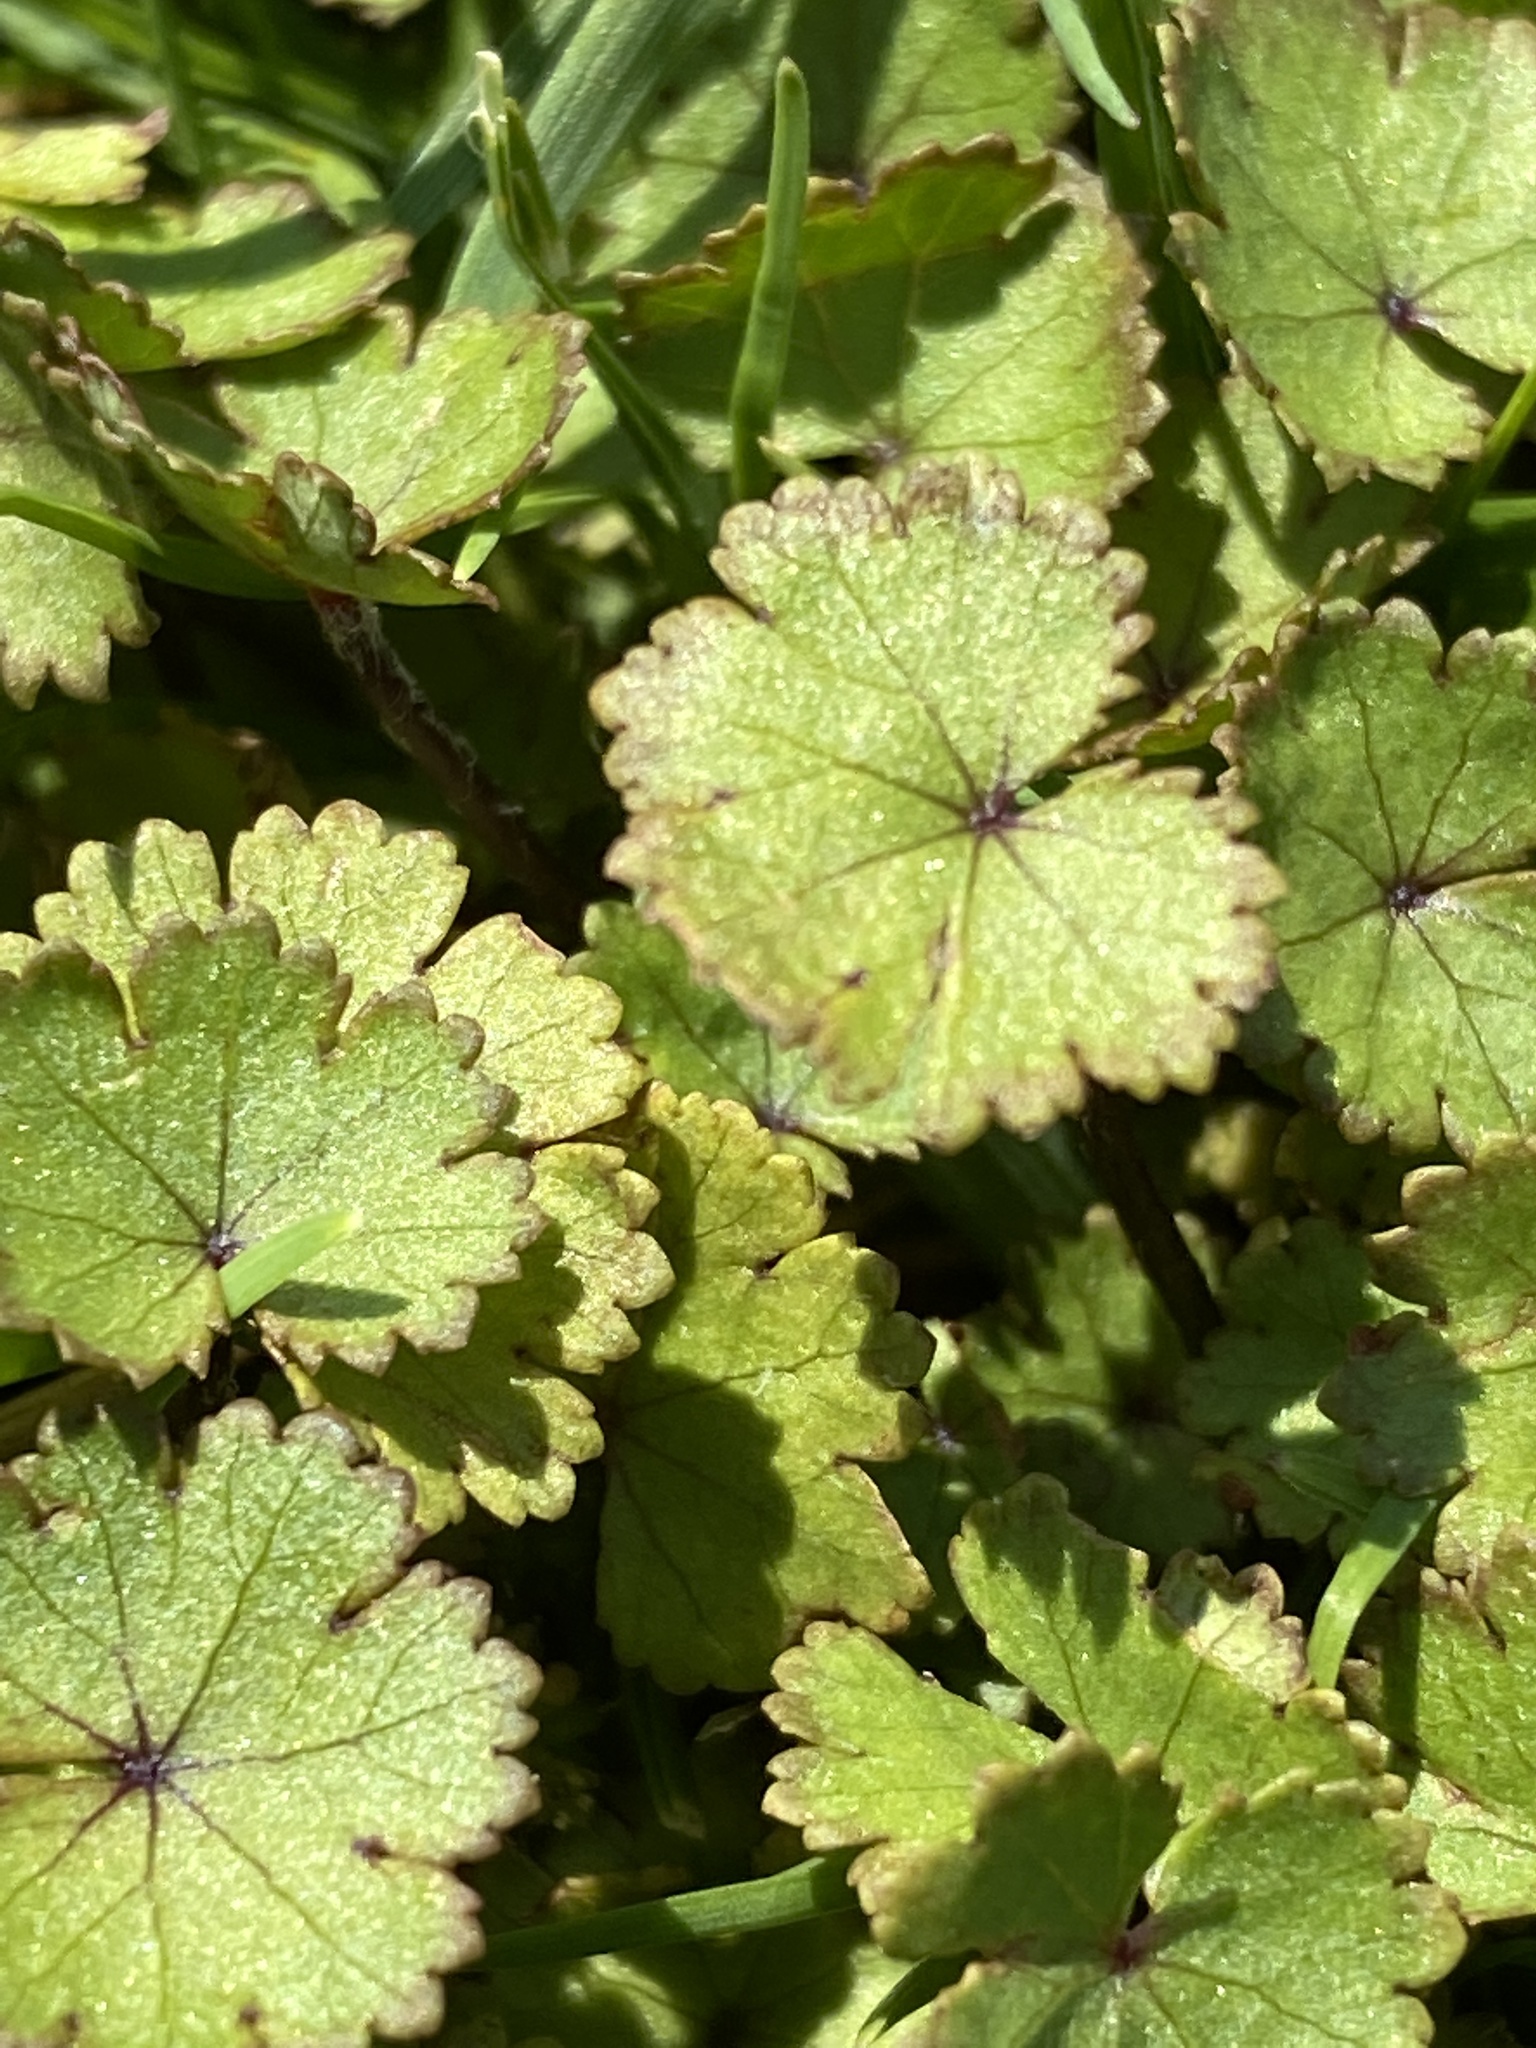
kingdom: Plantae
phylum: Tracheophyta
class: Magnoliopsida
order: Apiales
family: Araliaceae
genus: Hydrocotyle
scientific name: Hydrocotyle moschata
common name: Hairy pennywort
